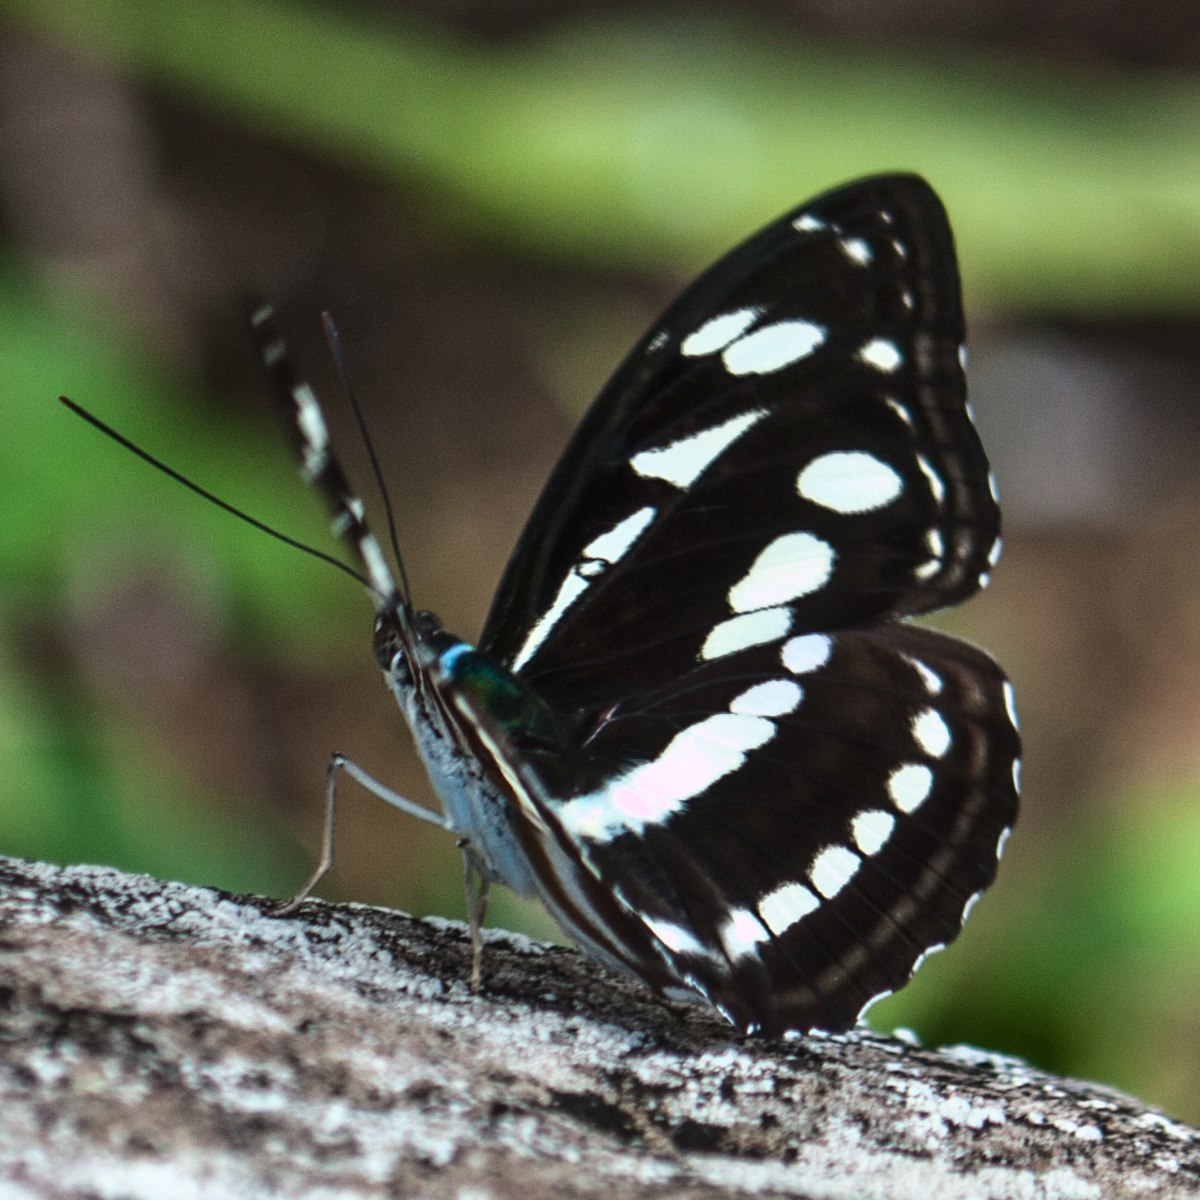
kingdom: Animalia
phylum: Arthropoda
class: Insecta
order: Lepidoptera
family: Nymphalidae
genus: Pantoporia
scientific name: Pantoporia larymna
